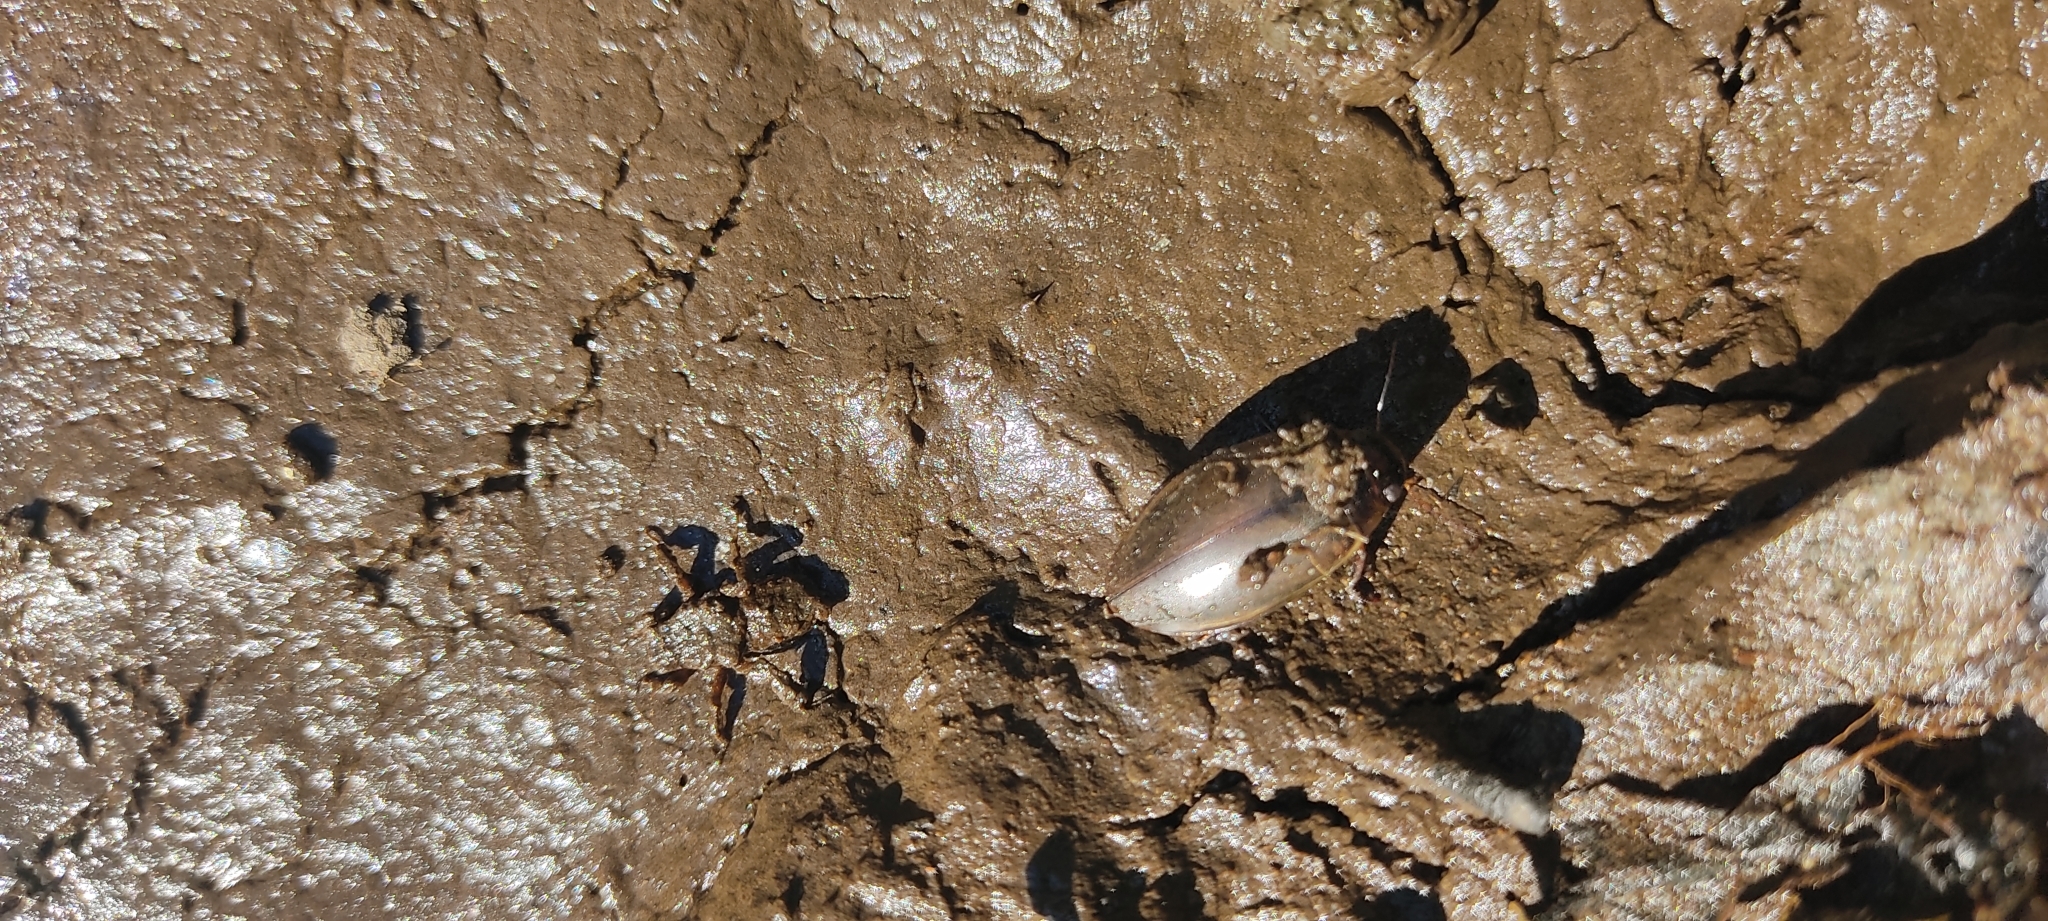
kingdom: Animalia
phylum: Arthropoda
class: Insecta
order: Coleoptera
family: Dytiscidae
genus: Colymbetes
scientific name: Colymbetes fuscus
